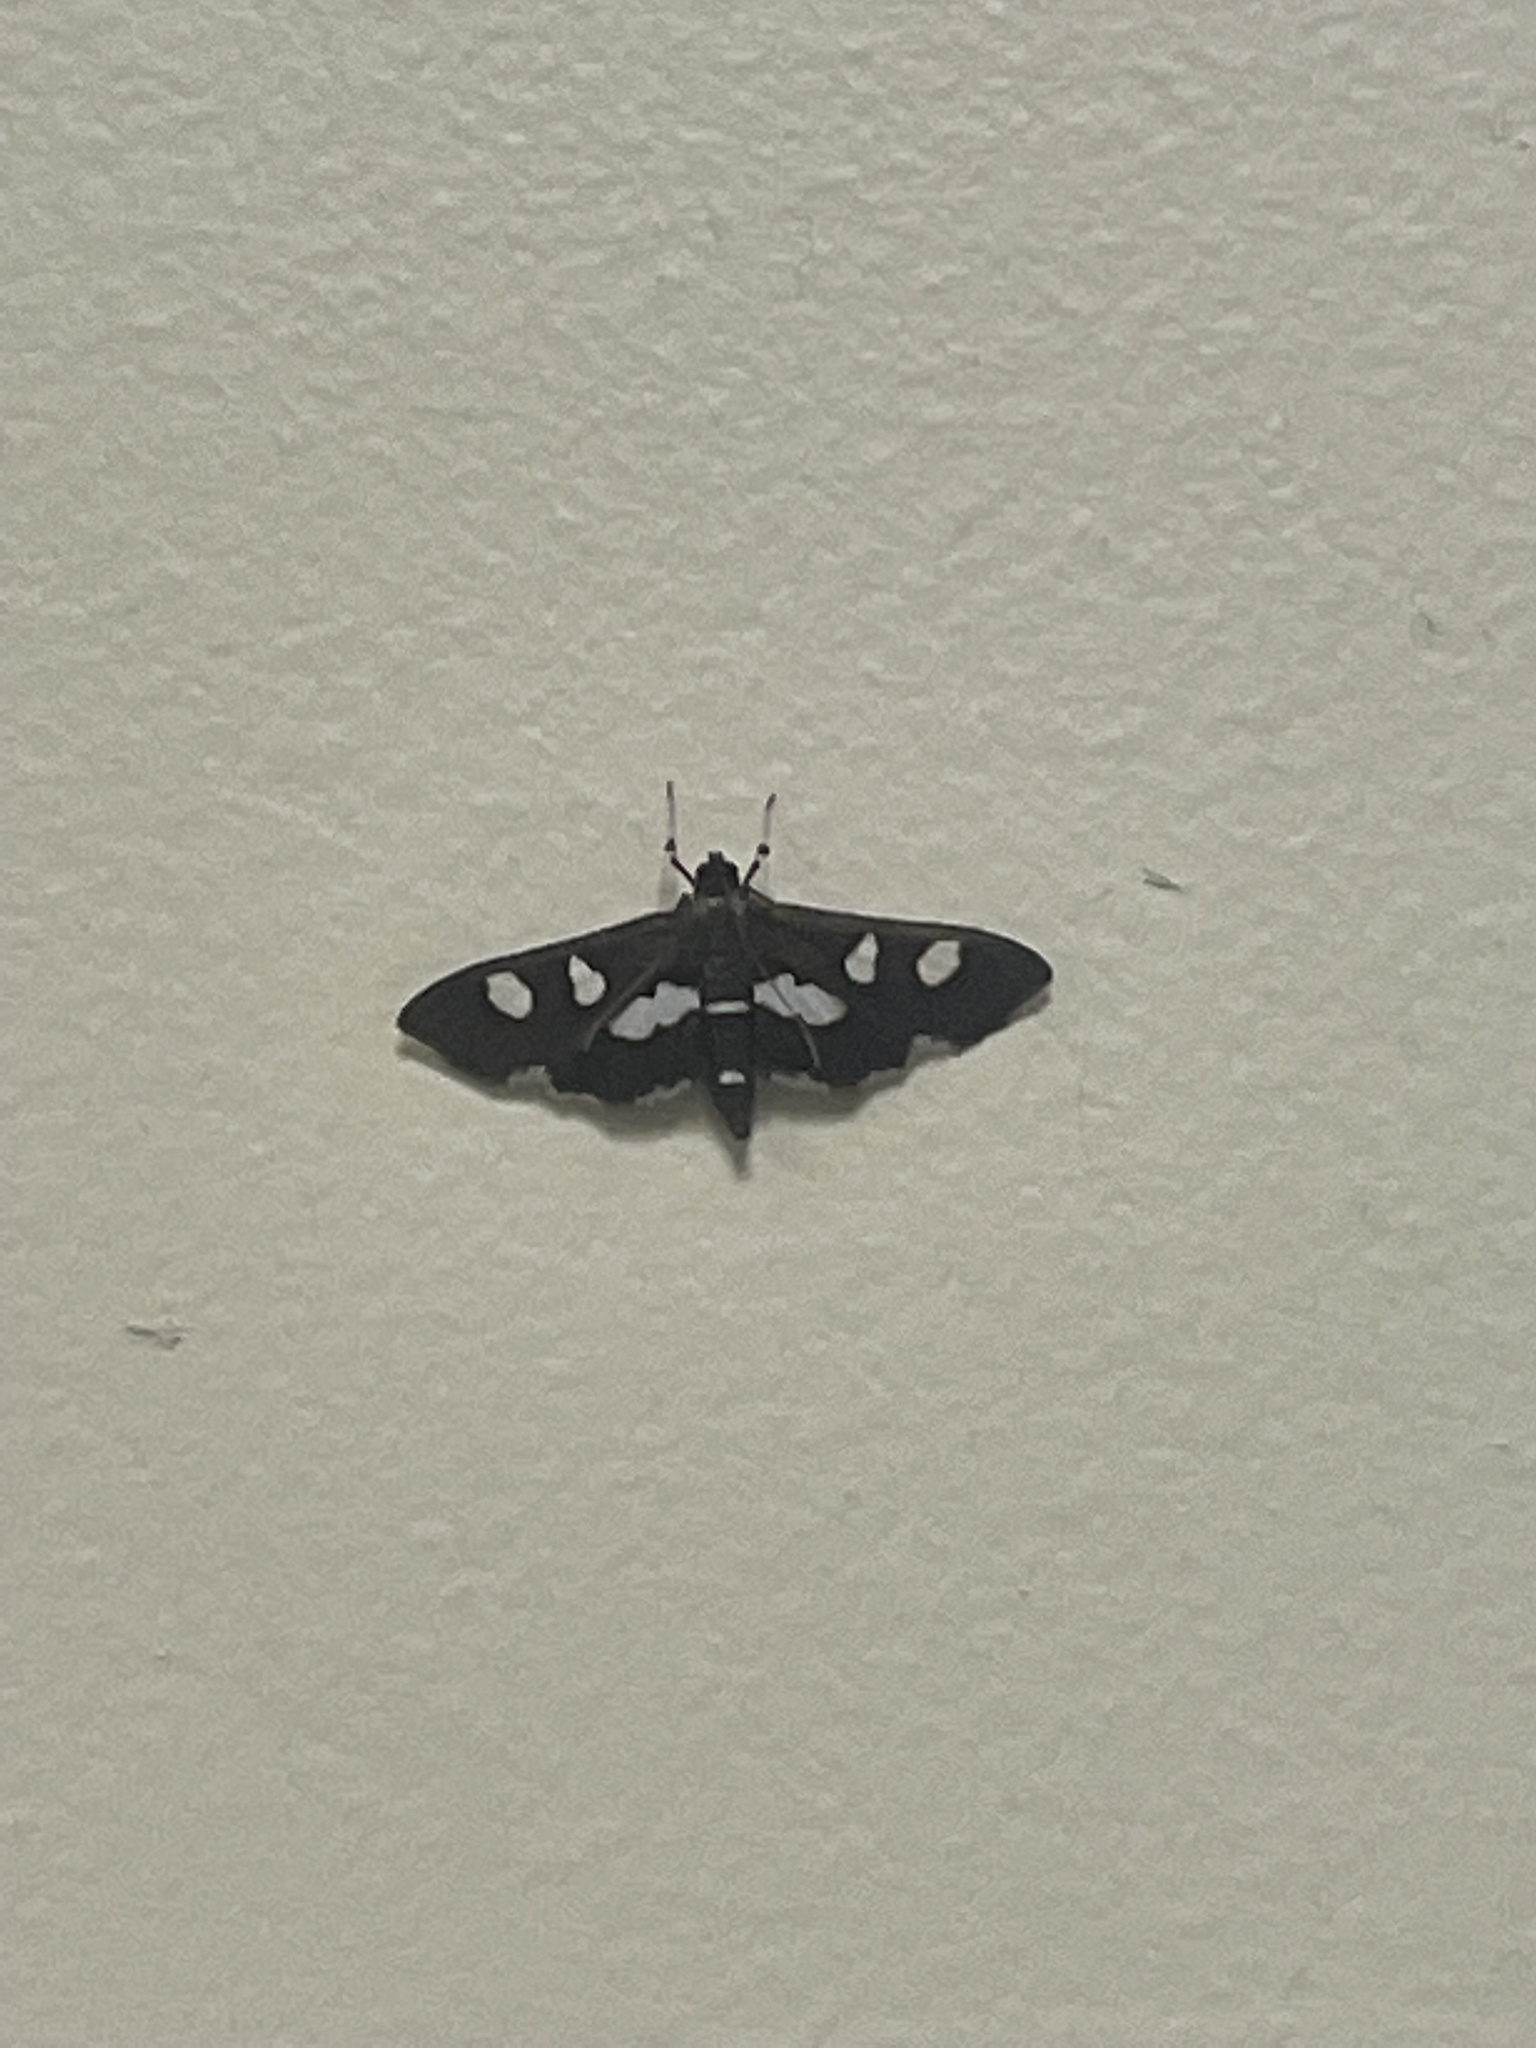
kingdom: Animalia
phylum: Arthropoda
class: Insecta
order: Lepidoptera
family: Crambidae
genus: Desmia
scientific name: Desmia
